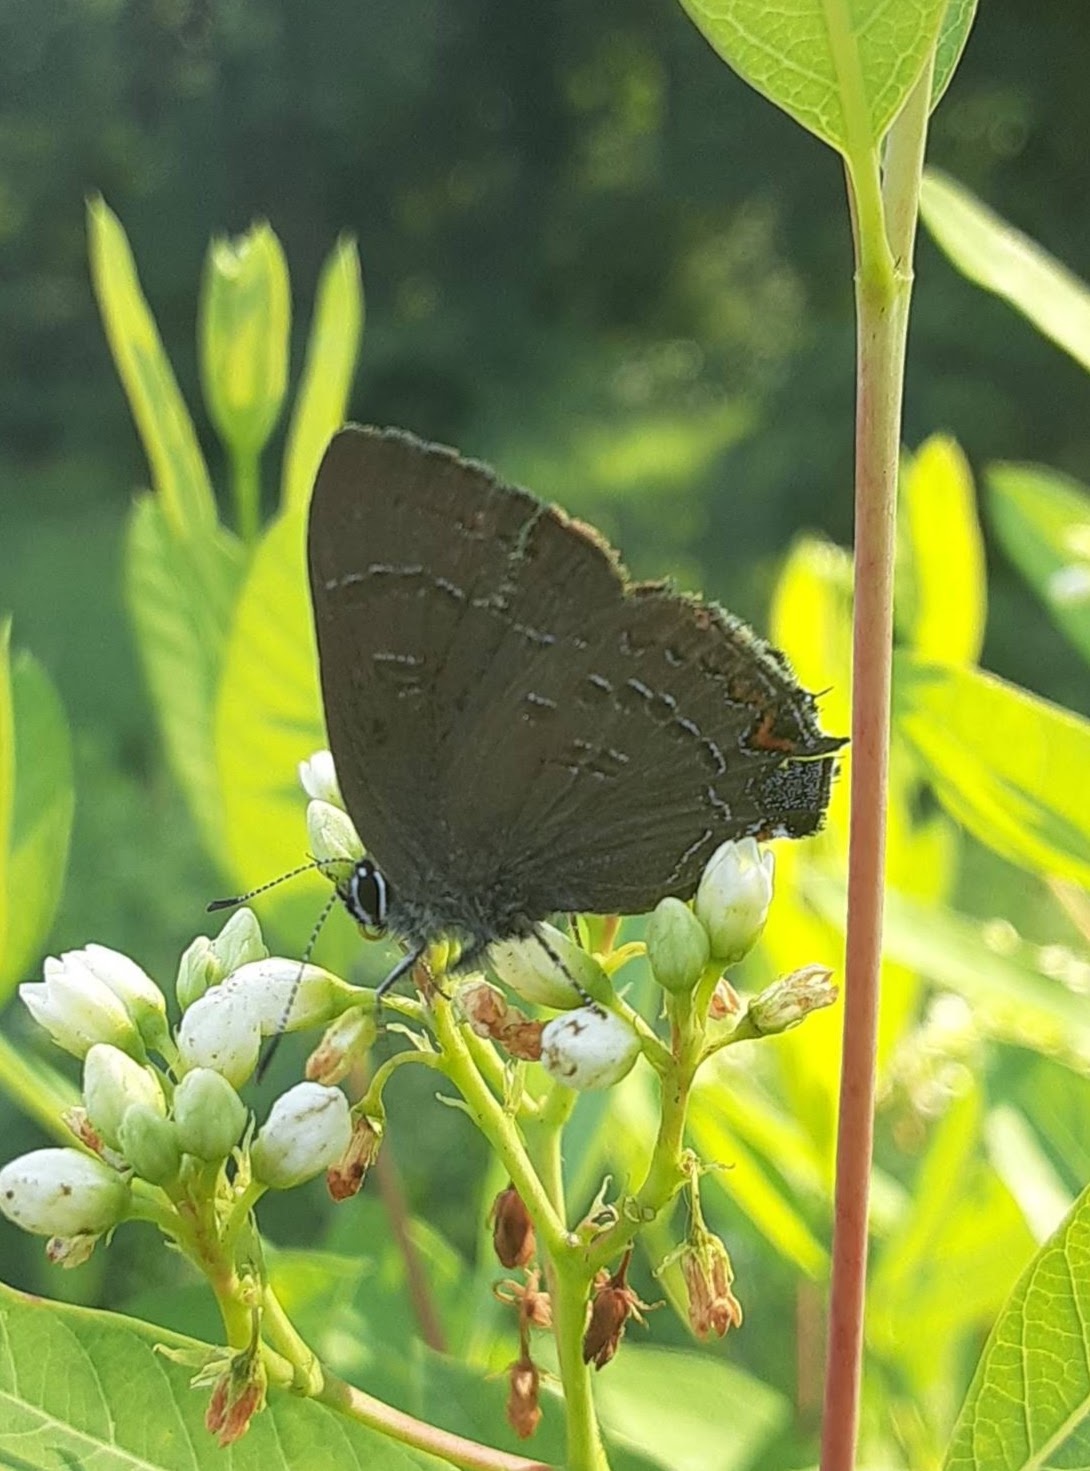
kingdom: Animalia
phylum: Arthropoda
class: Insecta
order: Lepidoptera
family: Lycaenidae
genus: Satyrium
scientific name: Satyrium calanus
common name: Banded hairstreak
